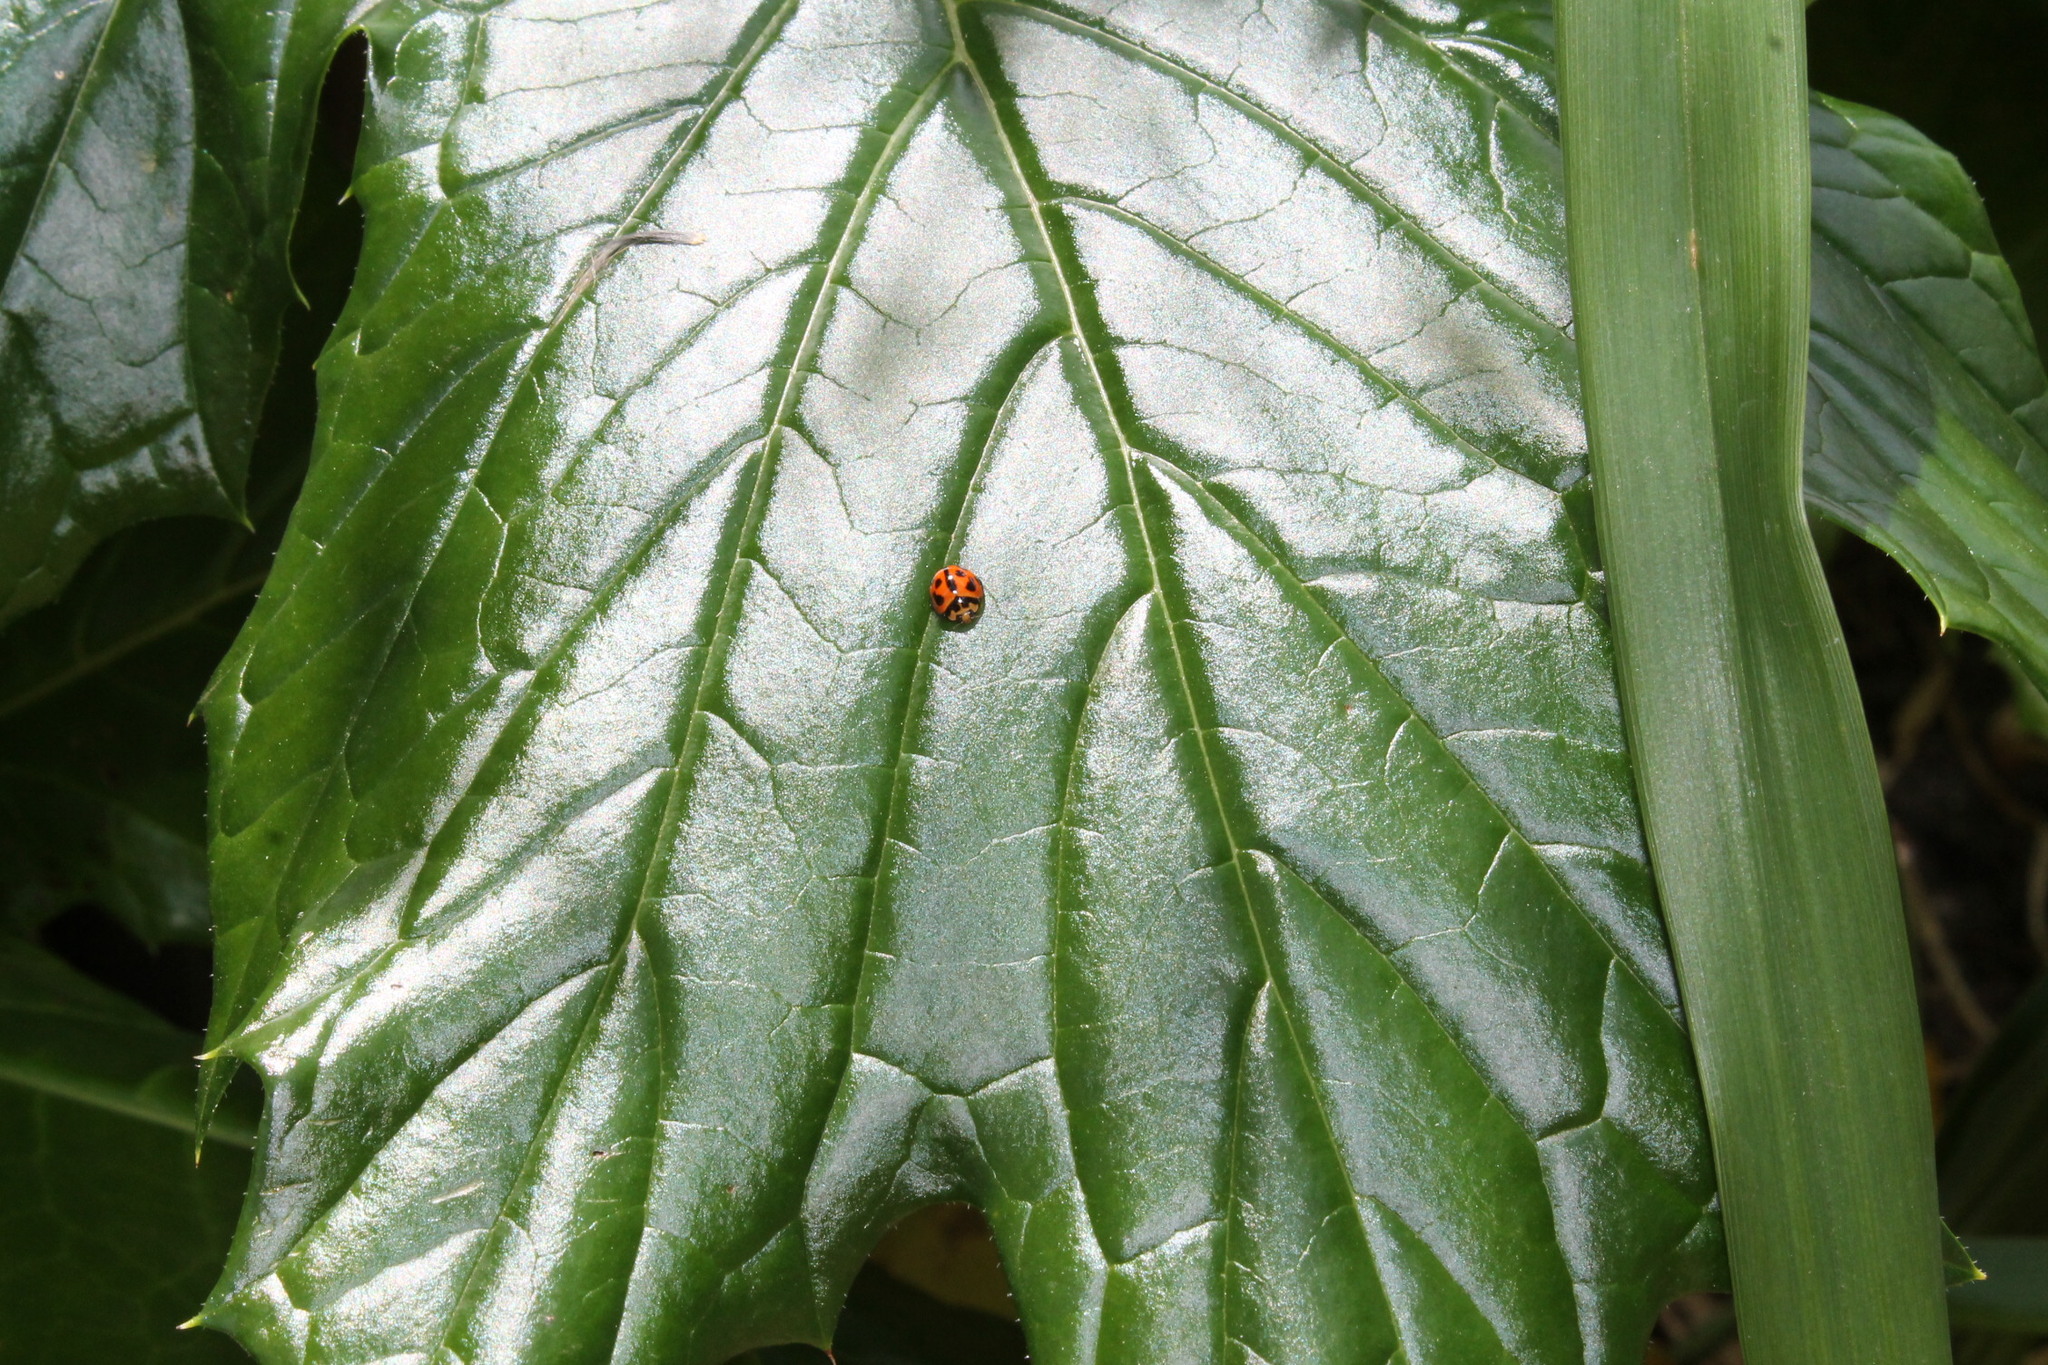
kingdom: Animalia
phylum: Arthropoda
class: Insecta
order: Coleoptera
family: Coccinellidae
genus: Coelophora
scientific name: Coelophora inaequalis
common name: Common australian lady beetle
